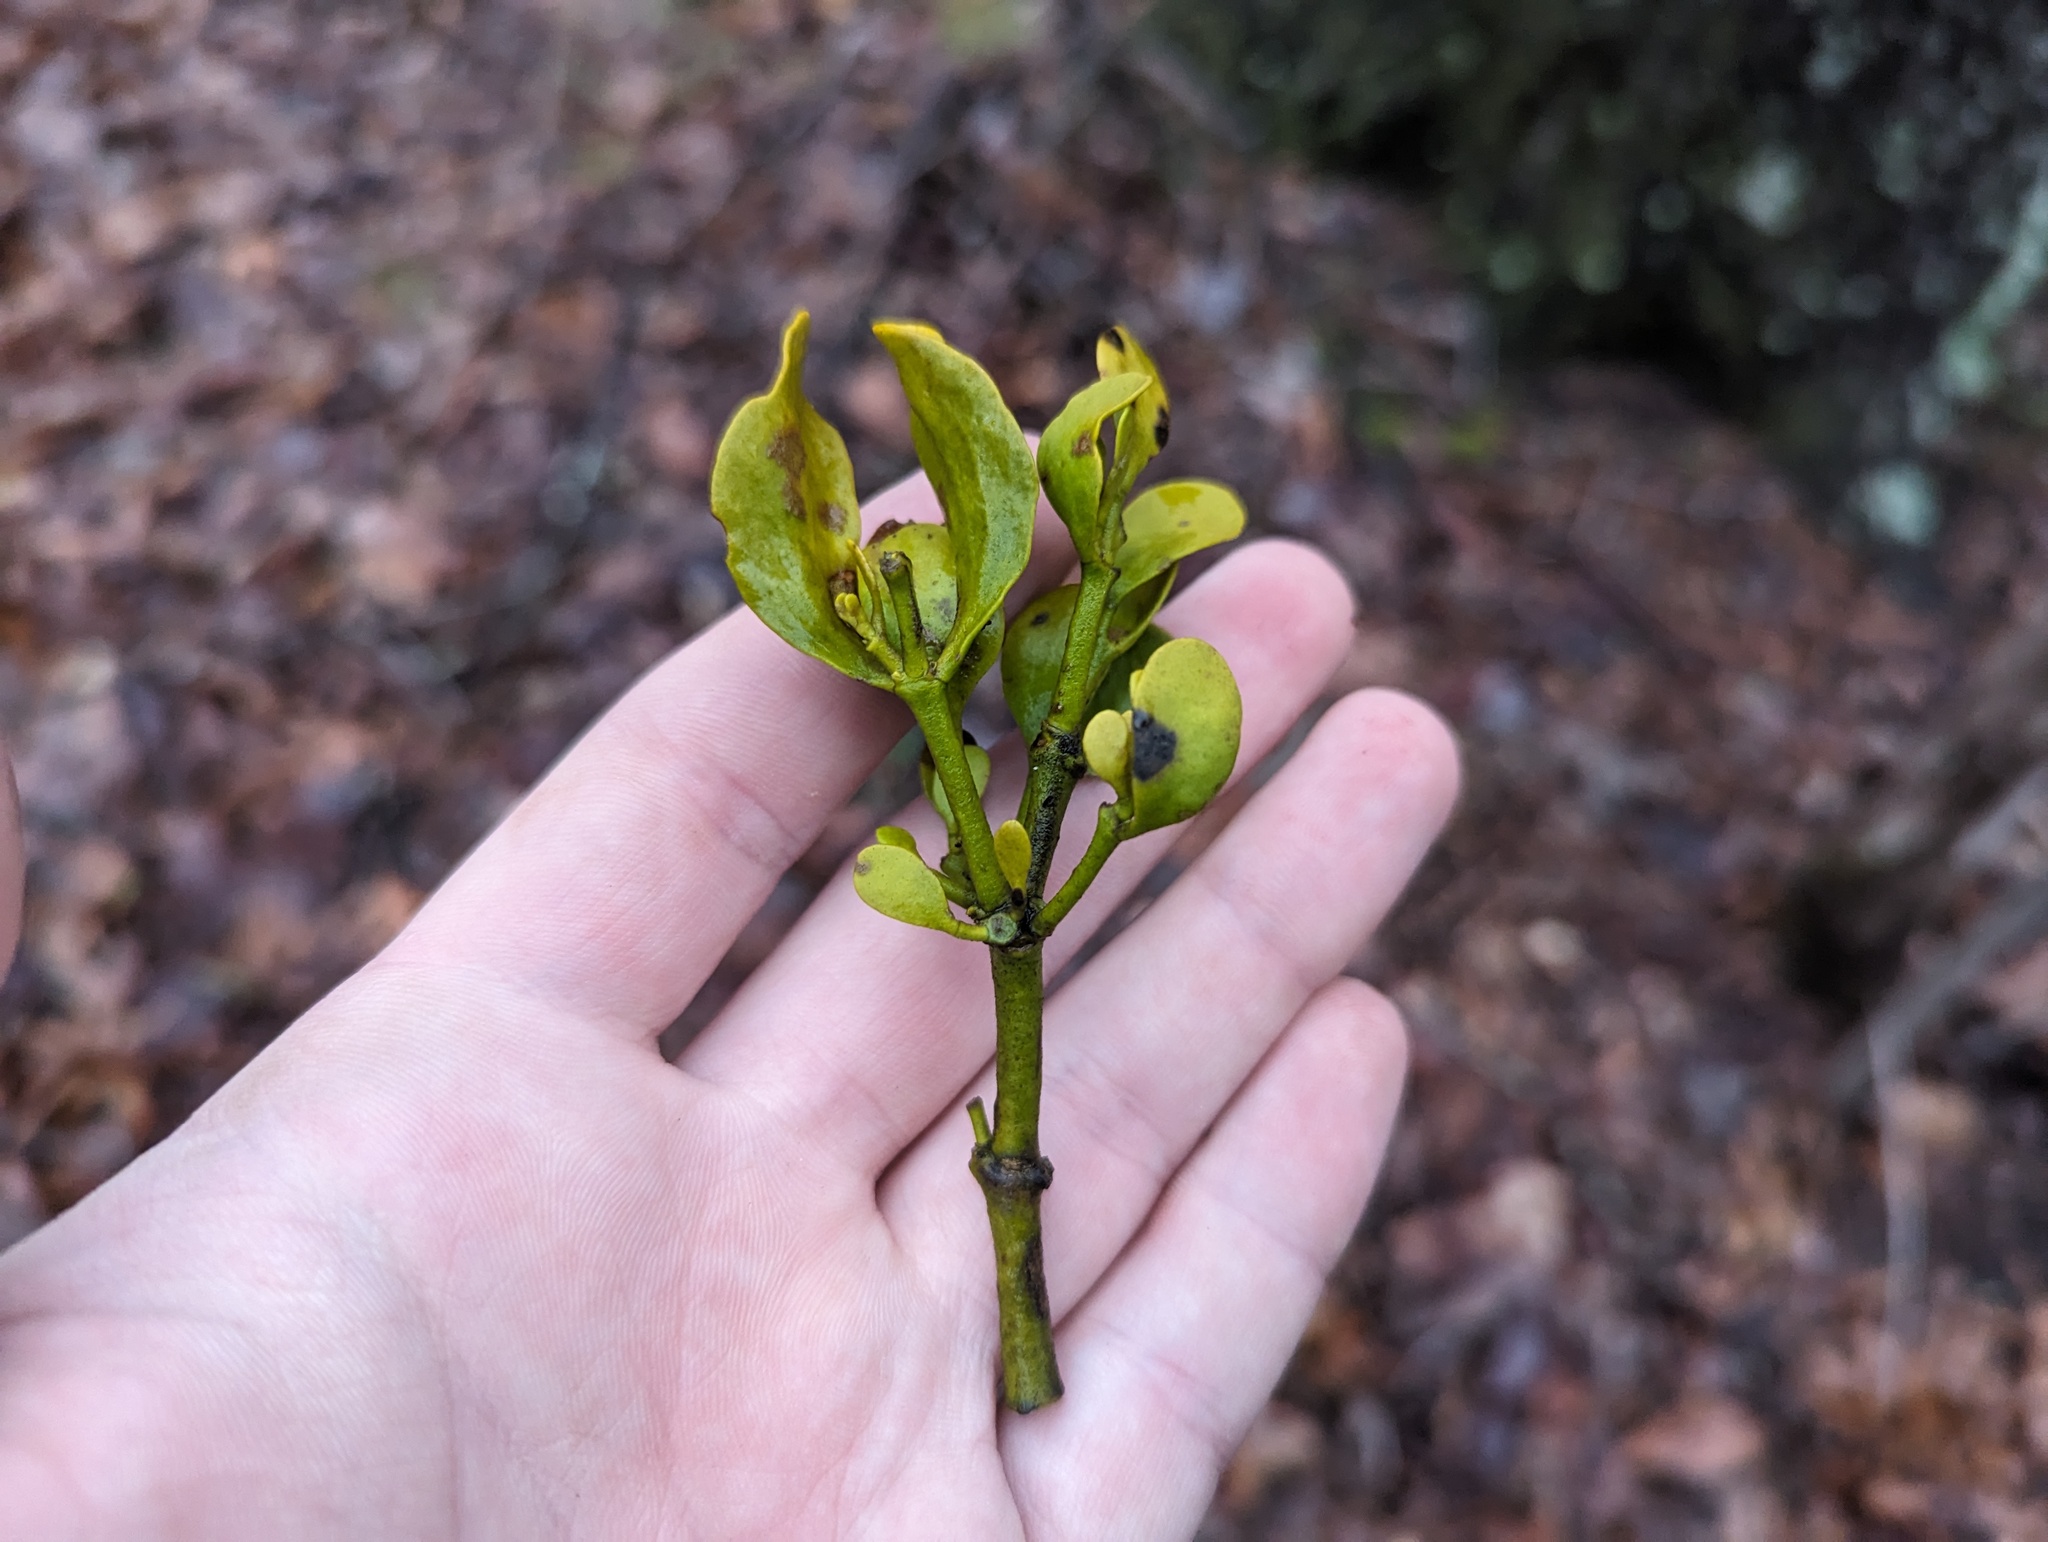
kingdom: Plantae
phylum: Tracheophyta
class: Magnoliopsida
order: Santalales
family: Viscaceae
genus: Phoradendron
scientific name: Phoradendron leucarpum
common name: Pacific mistletoe
